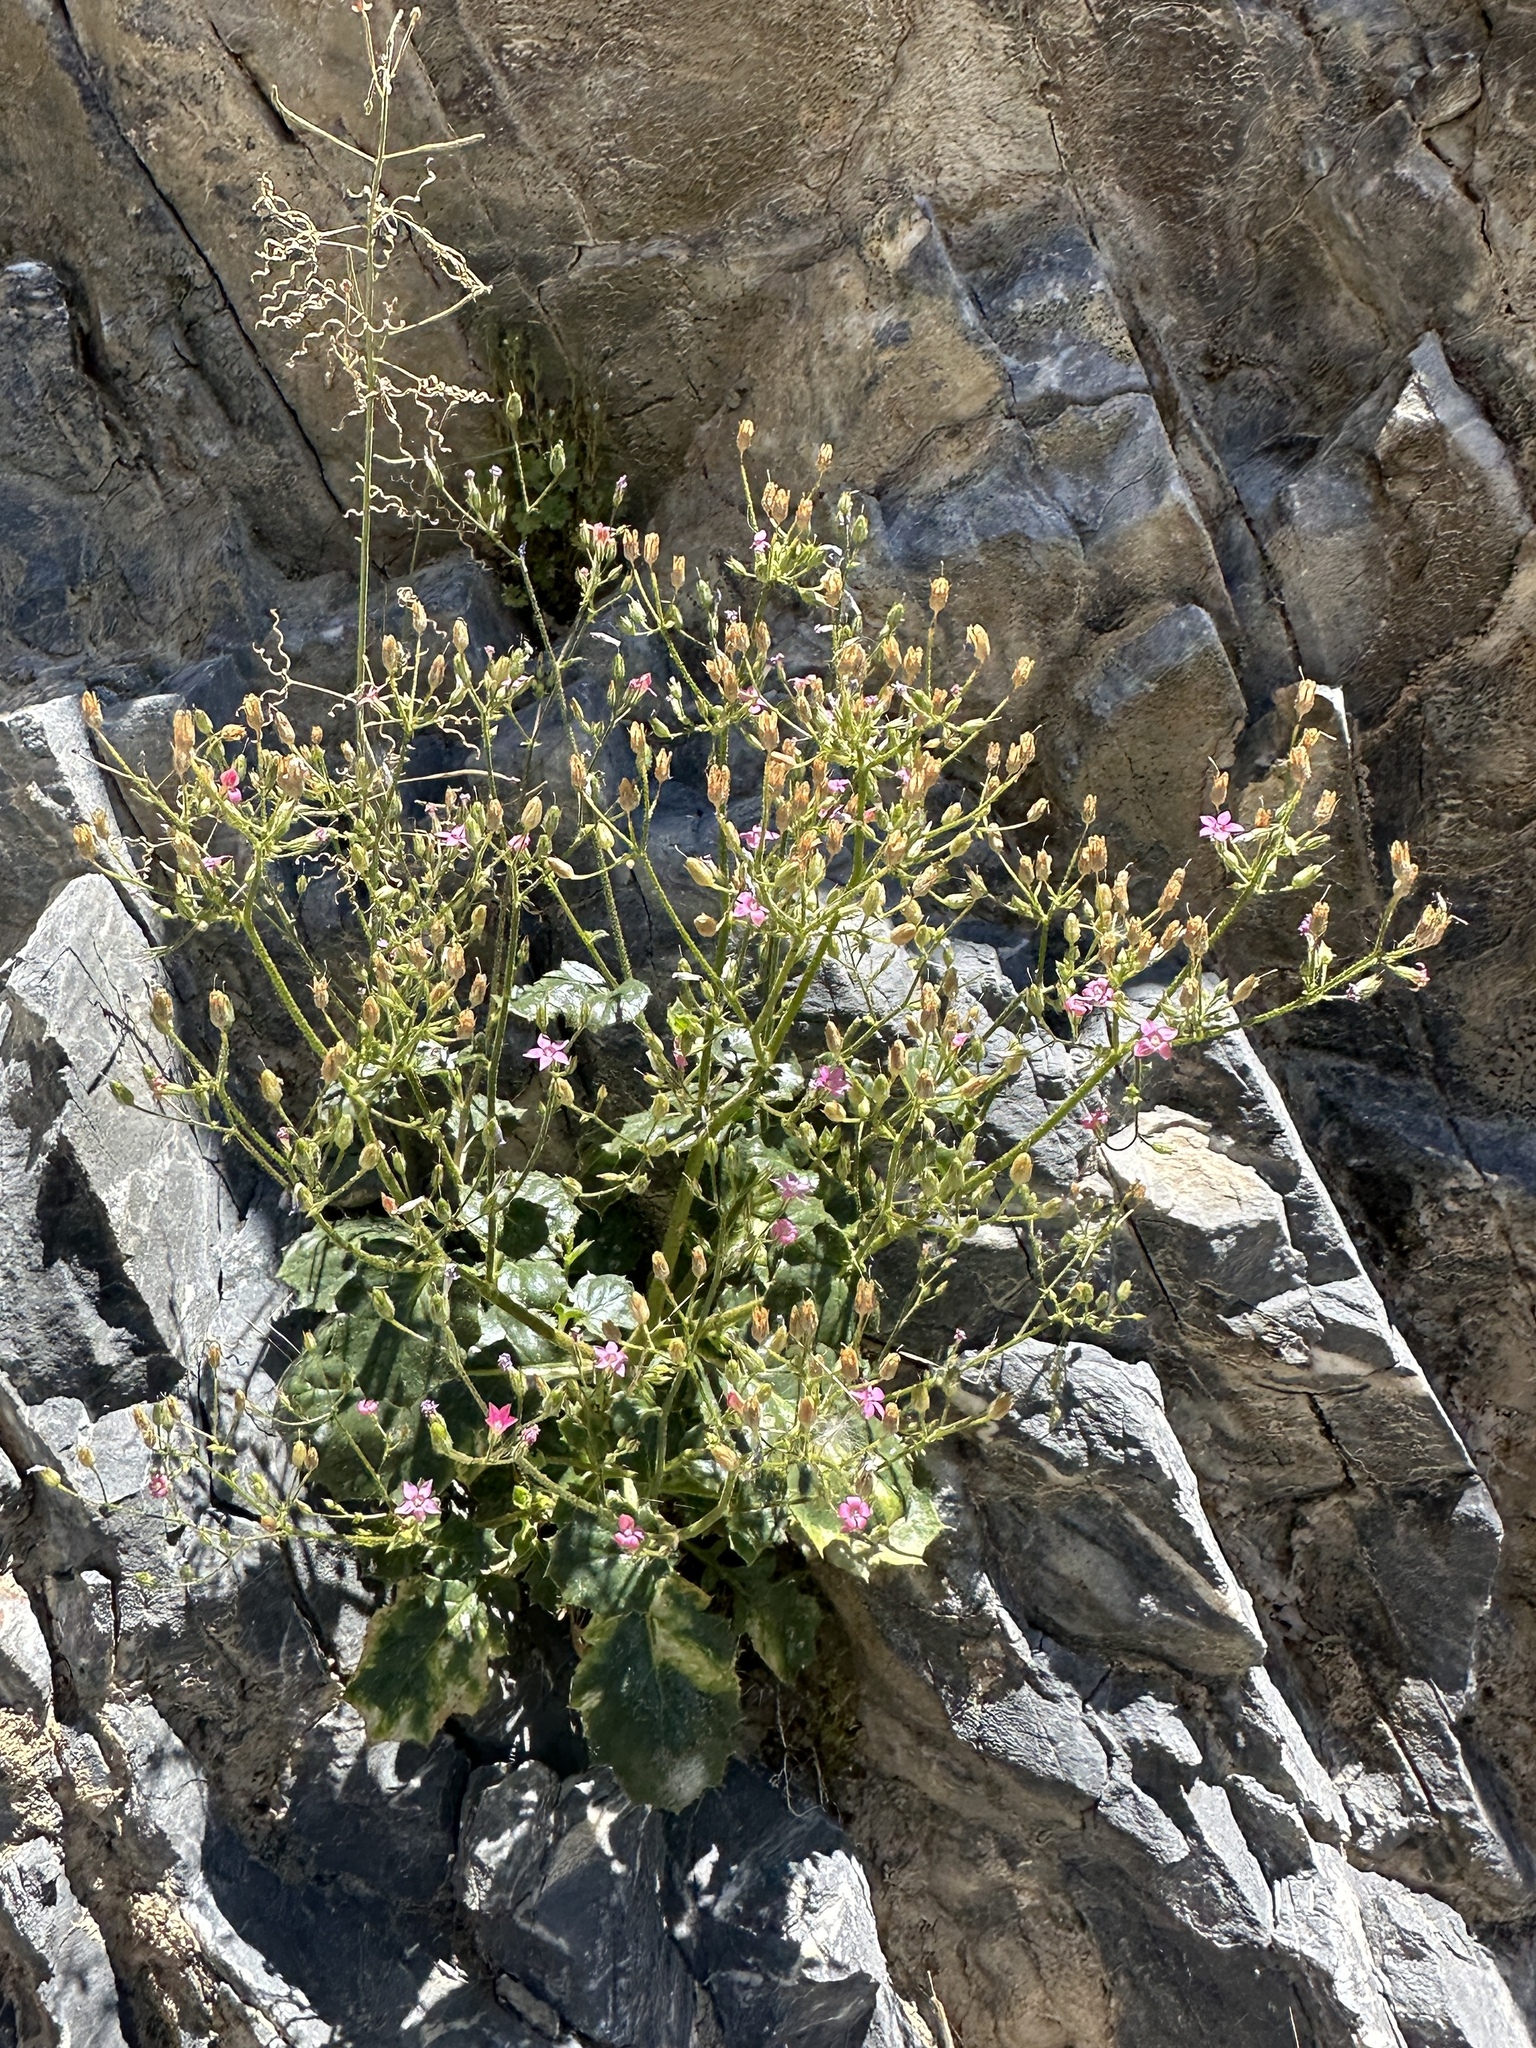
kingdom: Plantae
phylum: Tracheophyta
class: Magnoliopsida
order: Ericales
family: Polemoniaceae
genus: Aliciella
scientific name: Aliciella latifolia
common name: Broad-leaf gilia
